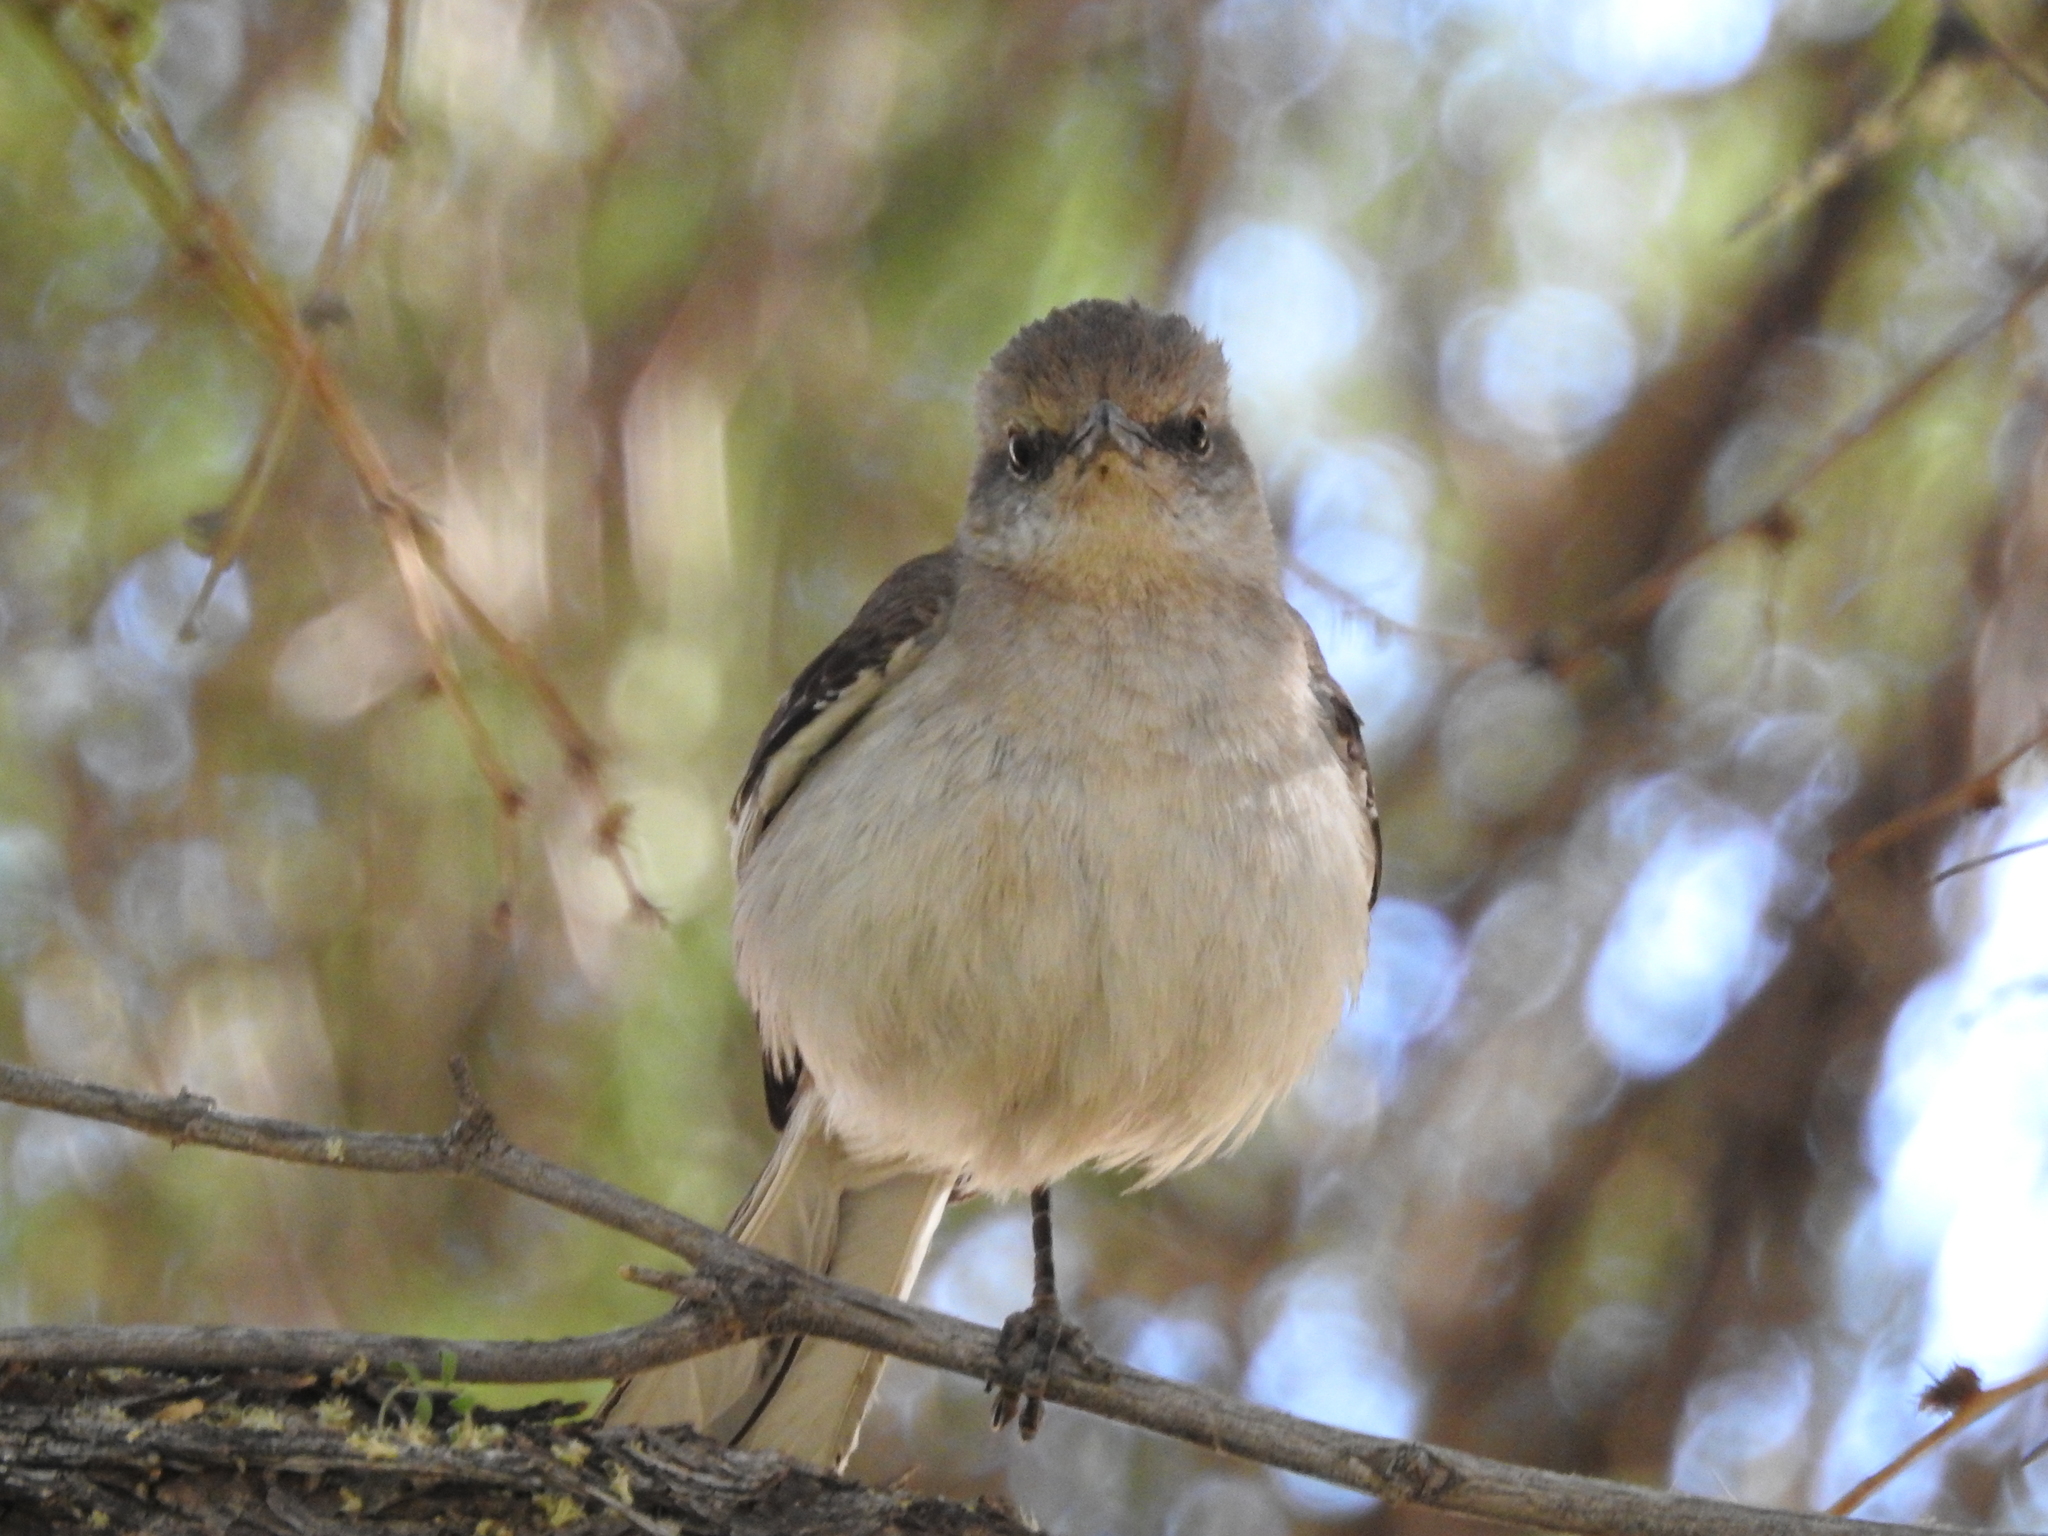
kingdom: Animalia
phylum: Chordata
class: Aves
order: Passeriformes
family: Mimidae
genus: Mimus
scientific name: Mimus polyglottos
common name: Northern mockingbird
